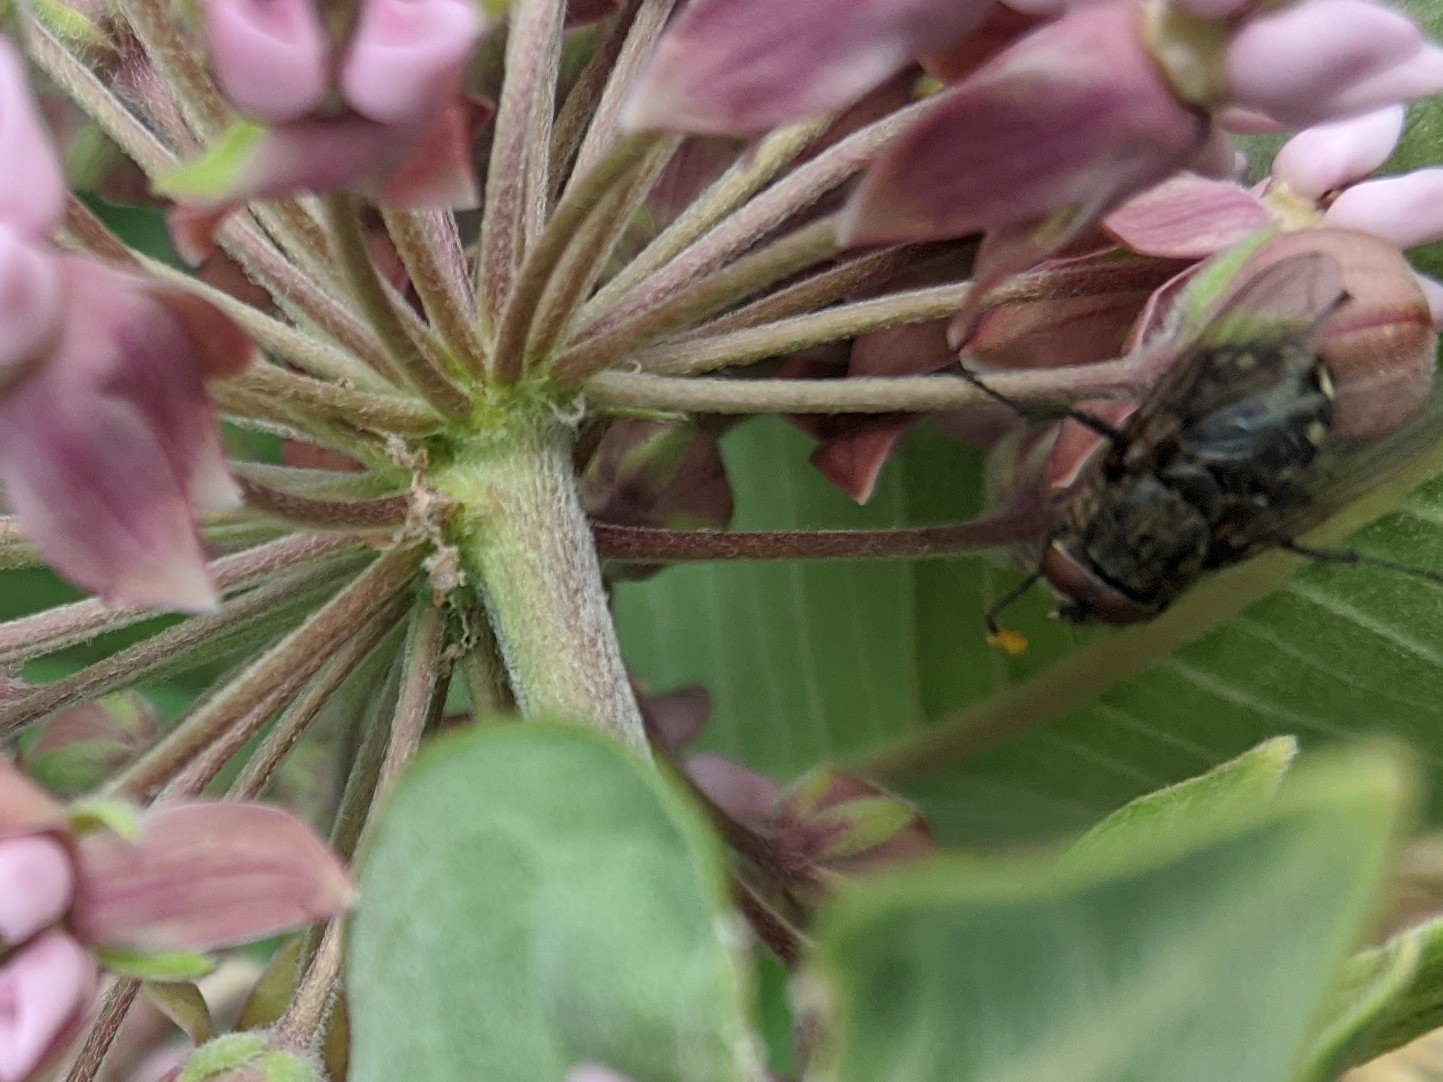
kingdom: Animalia
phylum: Arthropoda
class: Insecta
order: Diptera
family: Polleniidae
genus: Pollenia
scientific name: Pollenia
